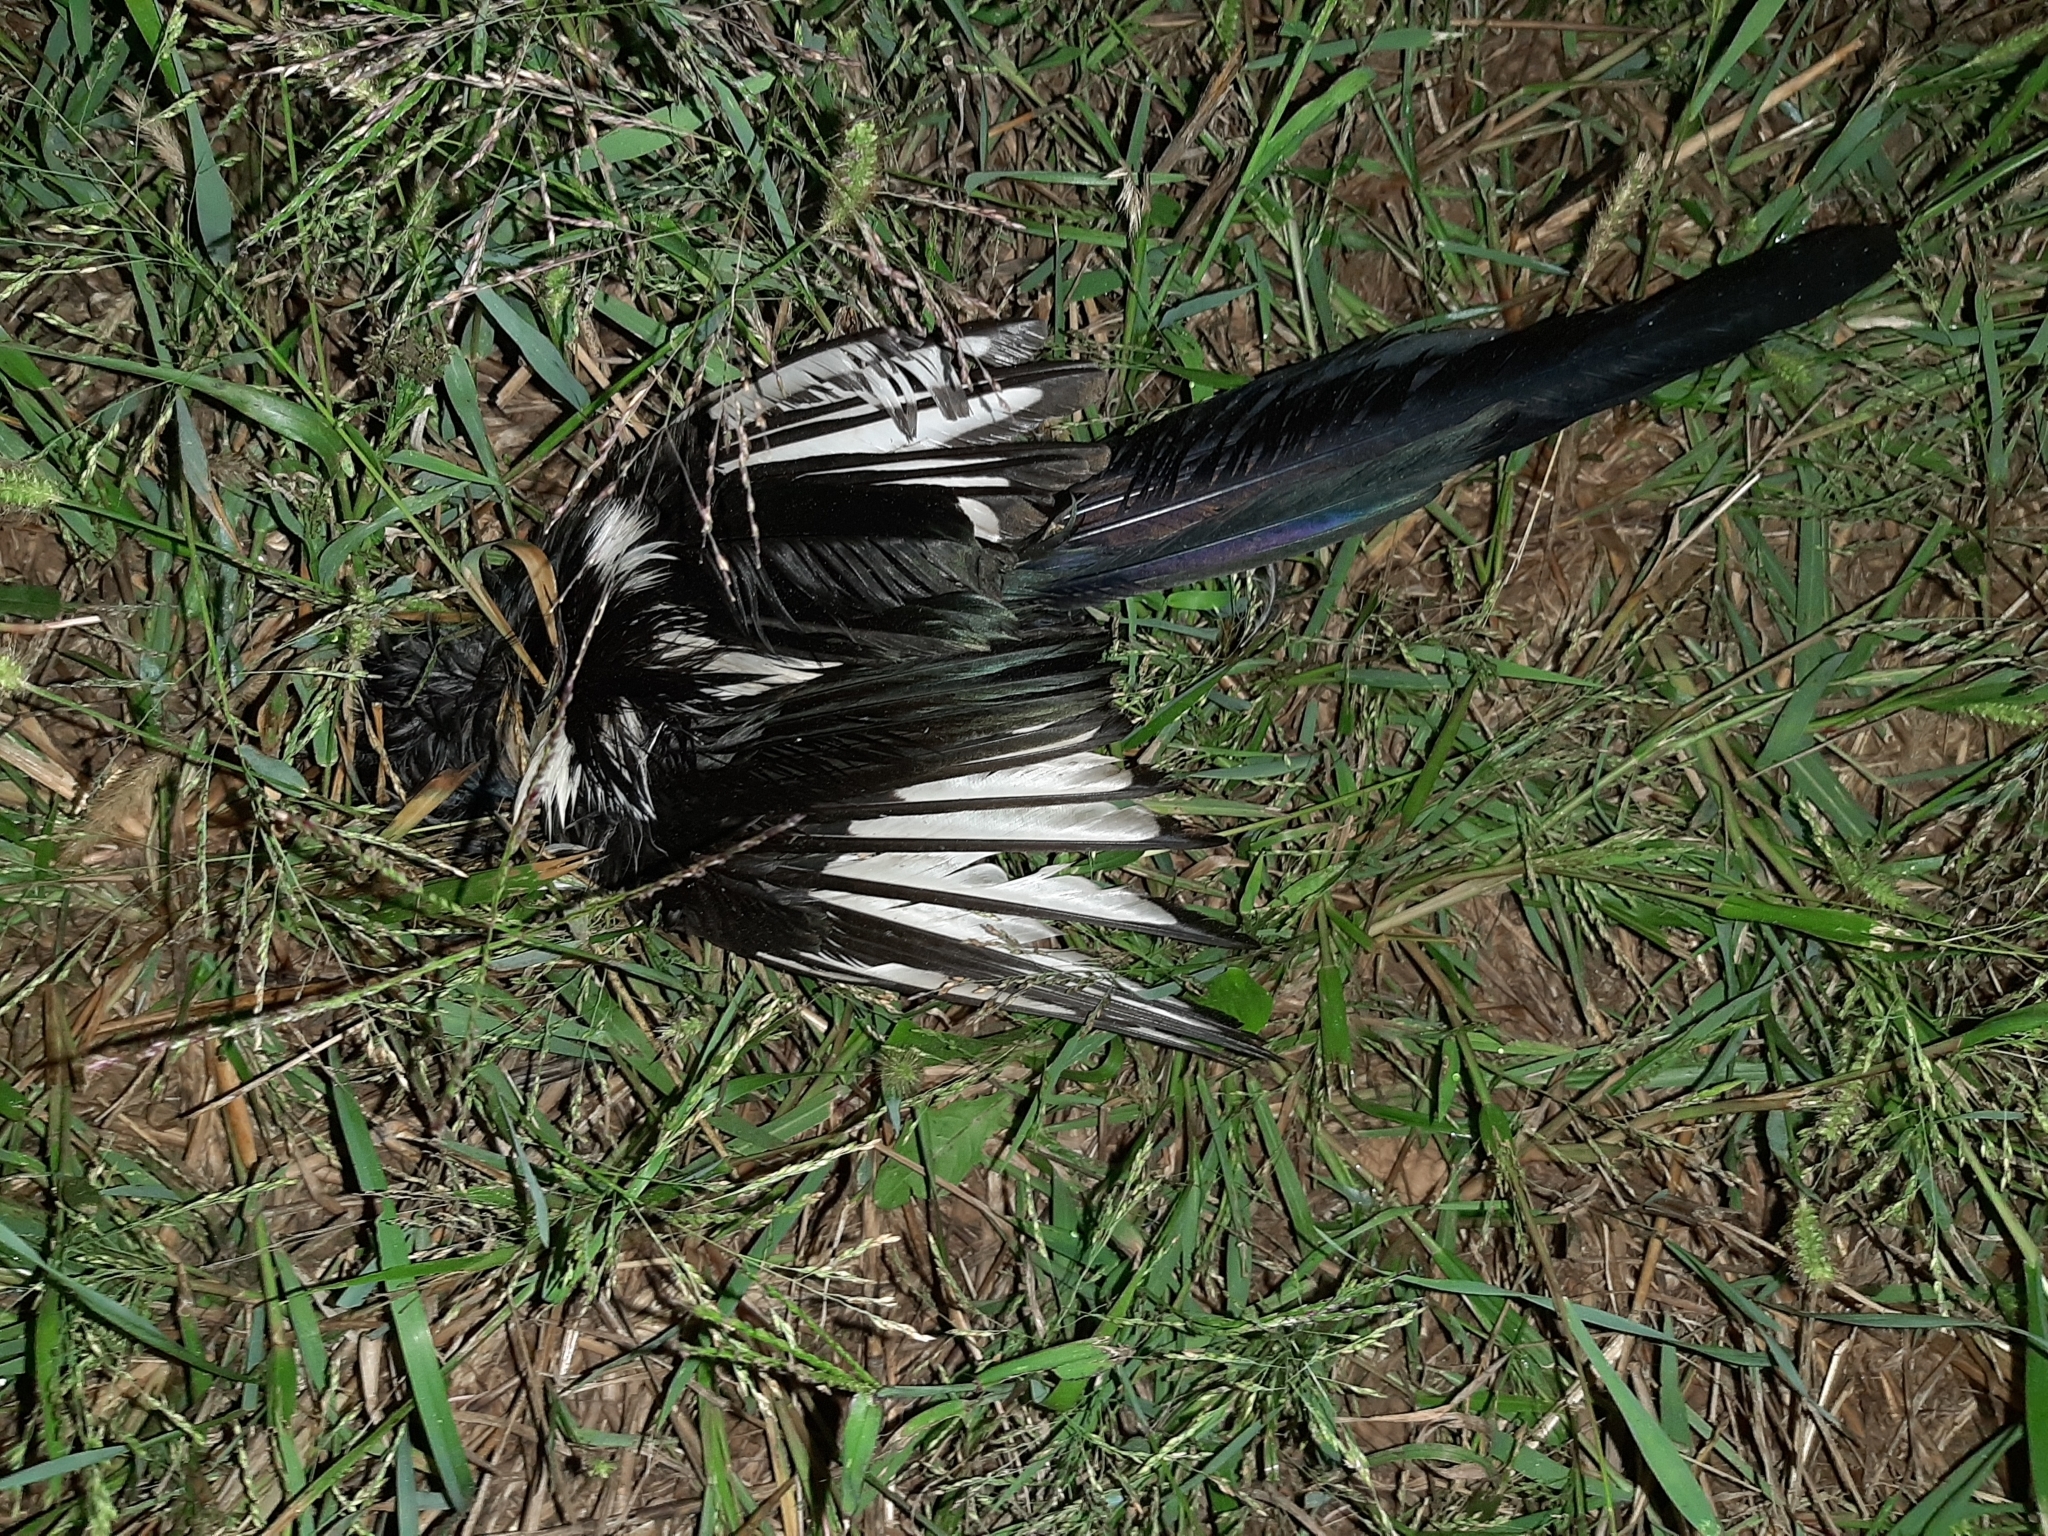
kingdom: Animalia
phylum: Chordata
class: Aves
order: Passeriformes
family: Corvidae
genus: Pica
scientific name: Pica pica
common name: Eurasian magpie
